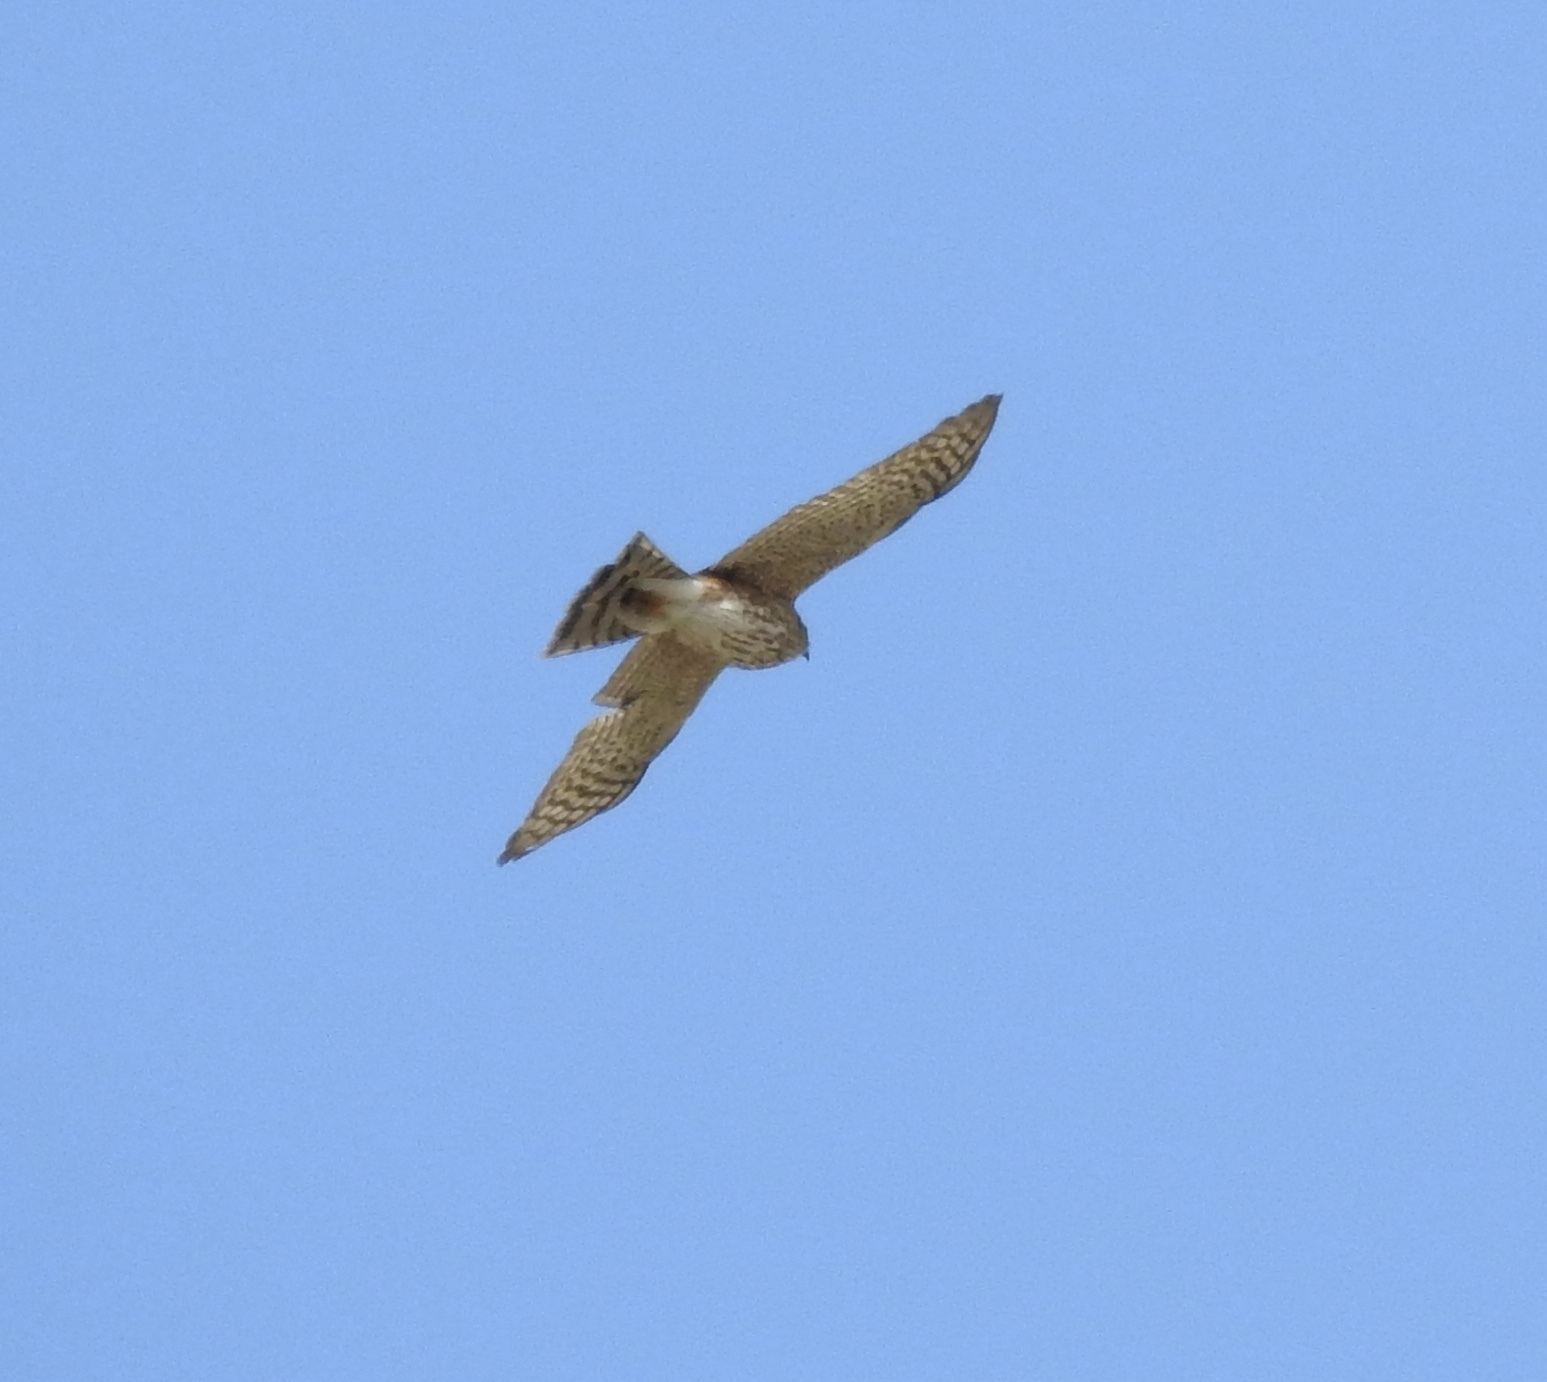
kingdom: Animalia
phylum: Chordata
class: Aves
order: Accipitriformes
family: Accipitridae
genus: Accipiter
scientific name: Accipiter cooperii
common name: Cooper's hawk
